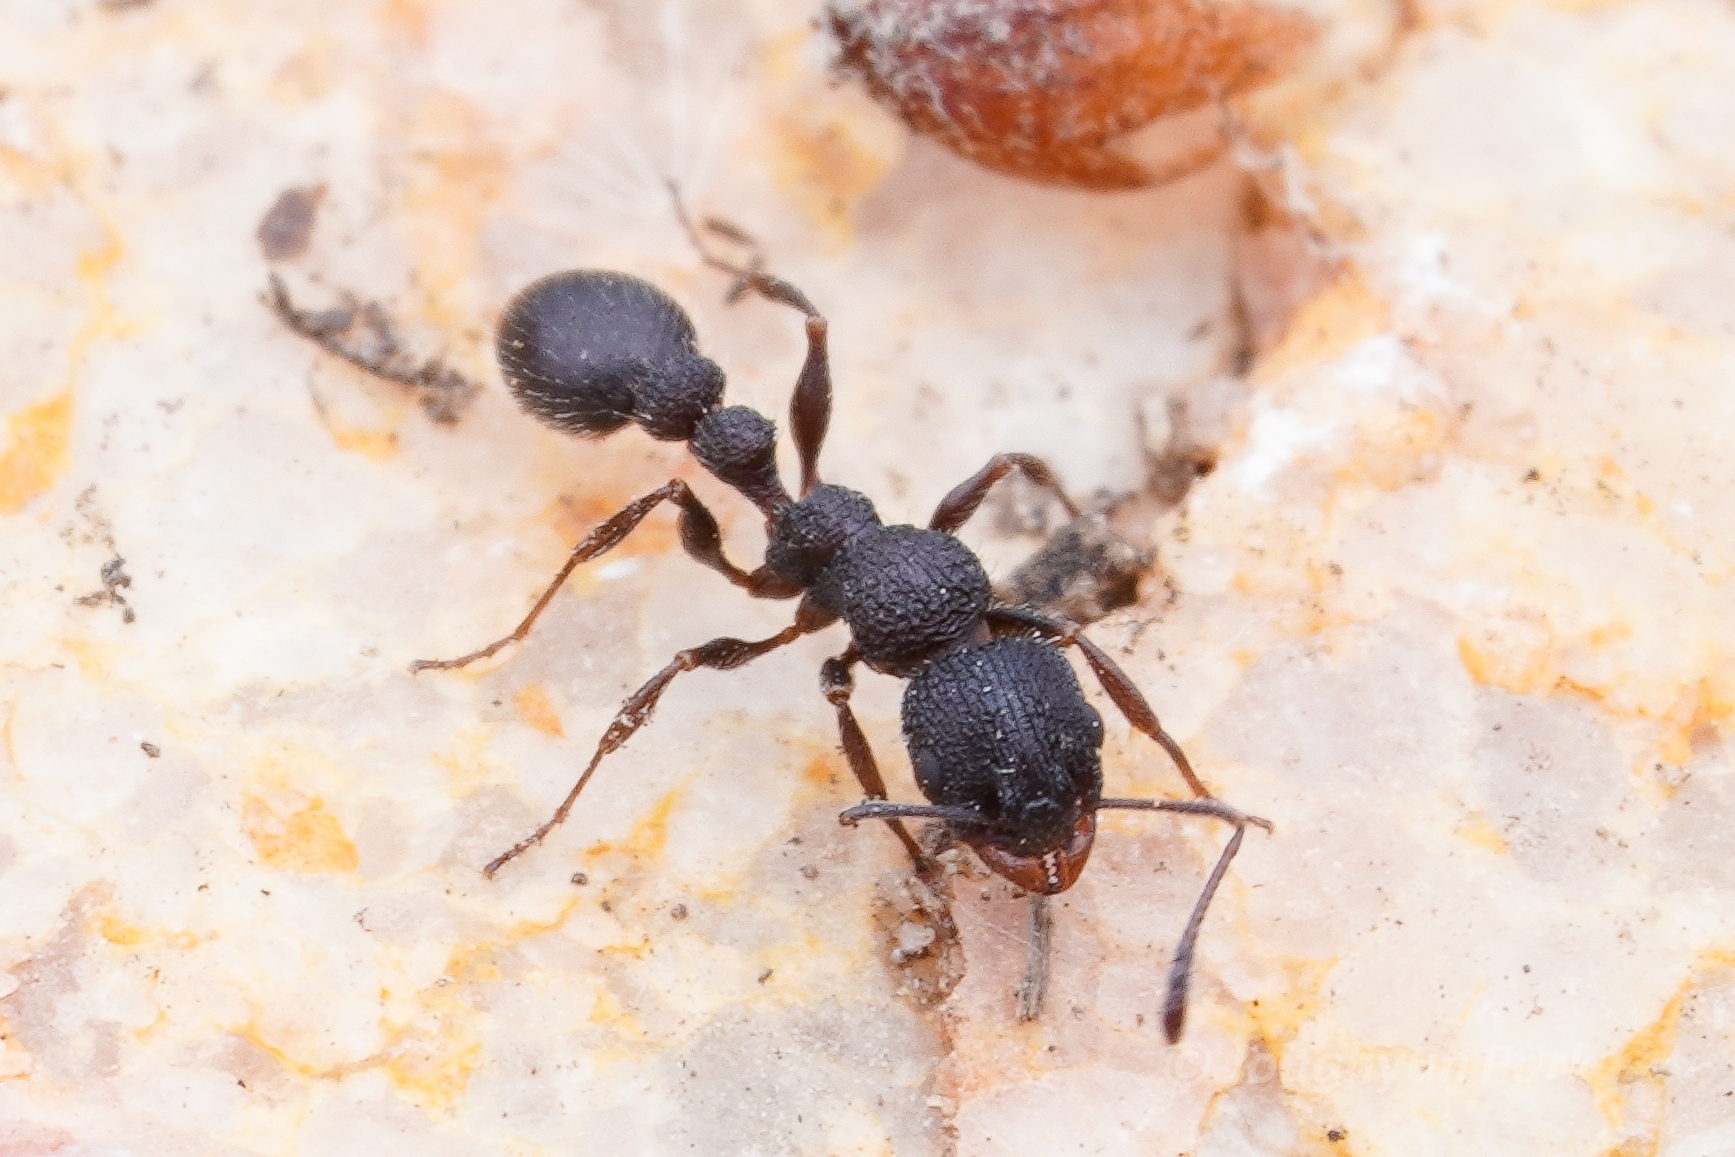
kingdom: Animalia
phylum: Arthropoda
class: Insecta
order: Hymenoptera
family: Formicidae
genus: Nesomyrmex
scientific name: Nesomyrmex saasveldensis
